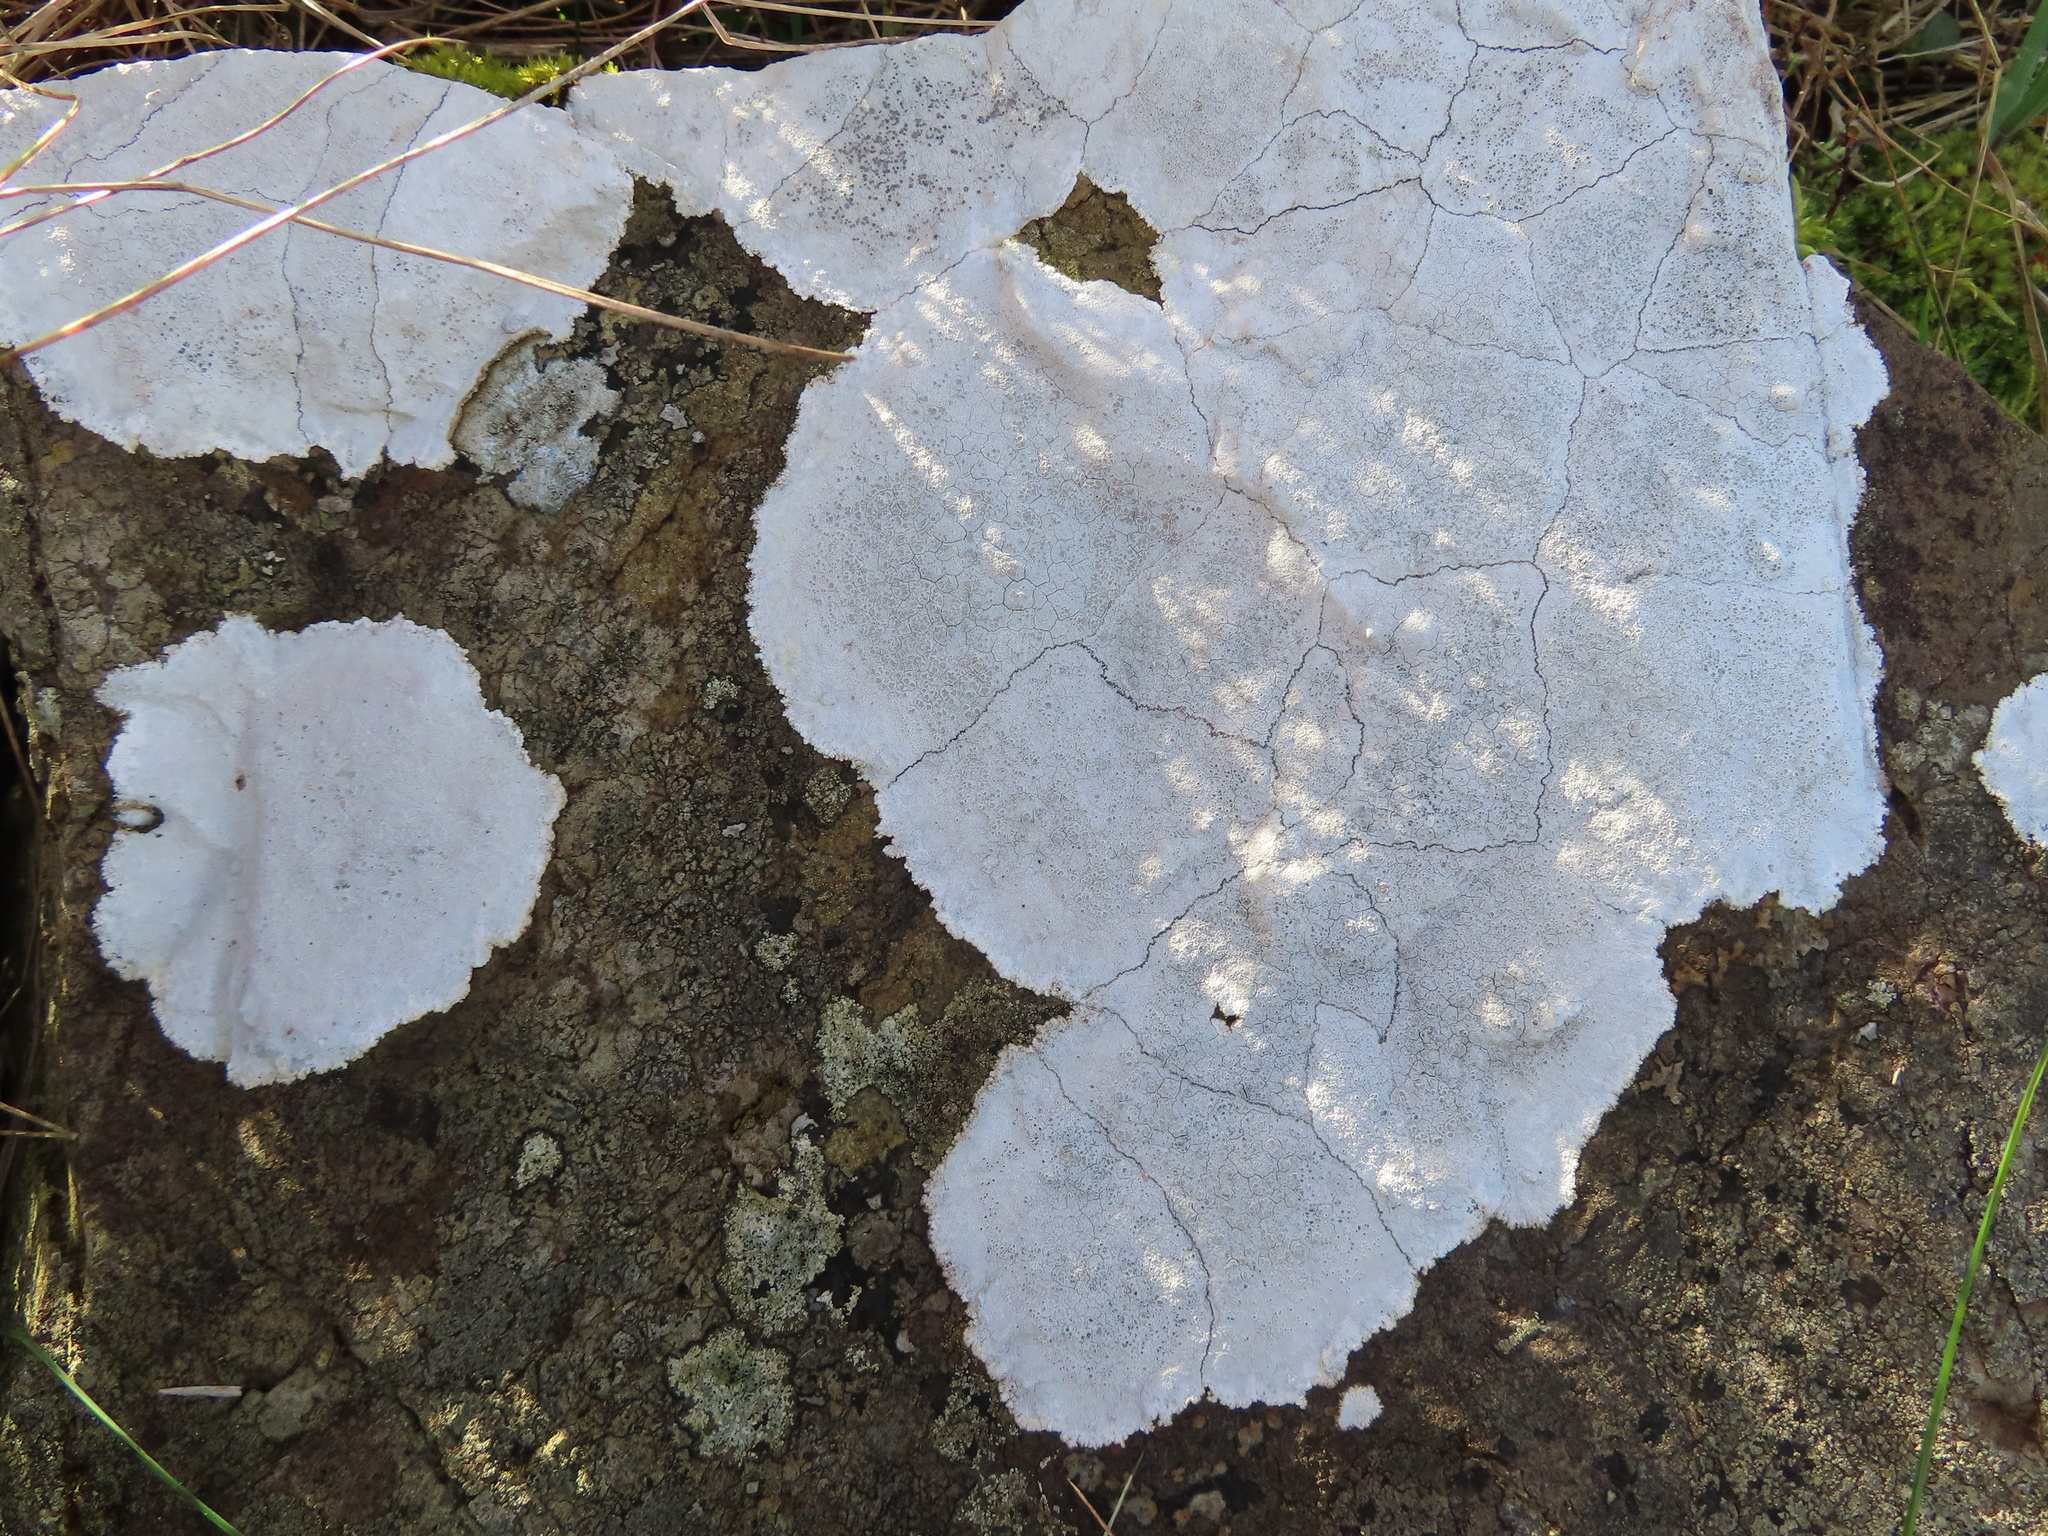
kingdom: Fungi
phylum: Ascomycota
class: Lecanoromycetes
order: Lecanorales
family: Lecanoraceae
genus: Glaucomaria
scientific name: Glaucomaria rupicola
